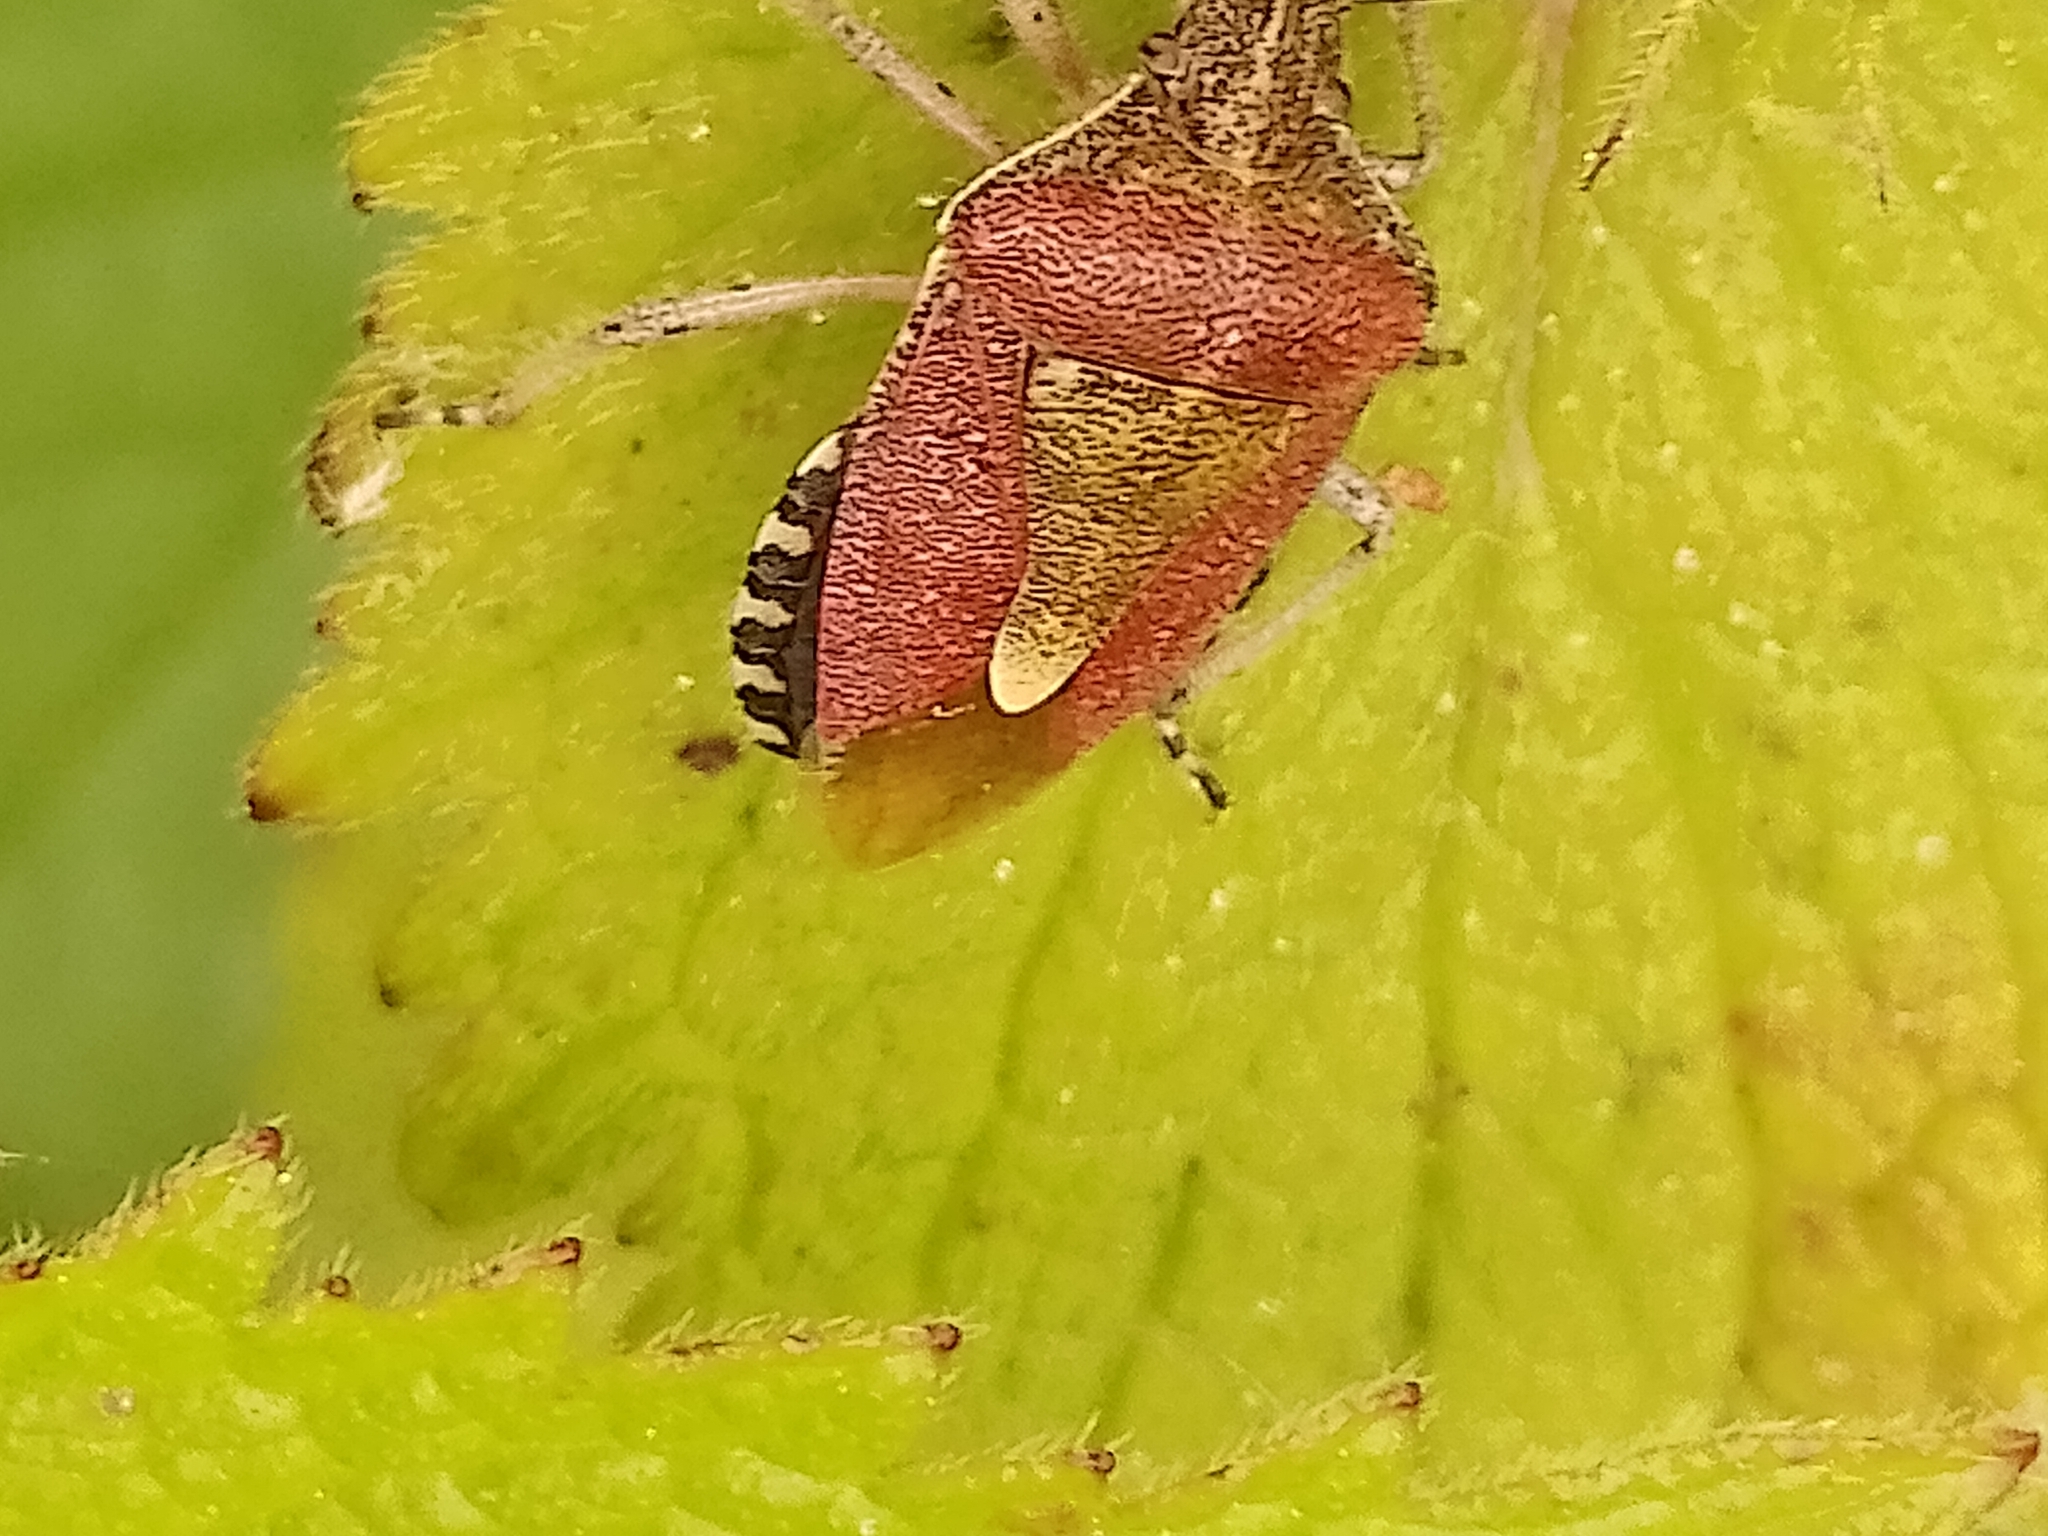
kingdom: Animalia
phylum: Arthropoda
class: Insecta
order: Hemiptera
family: Pentatomidae
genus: Dolycoris
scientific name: Dolycoris baccarum
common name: Sloe bug
